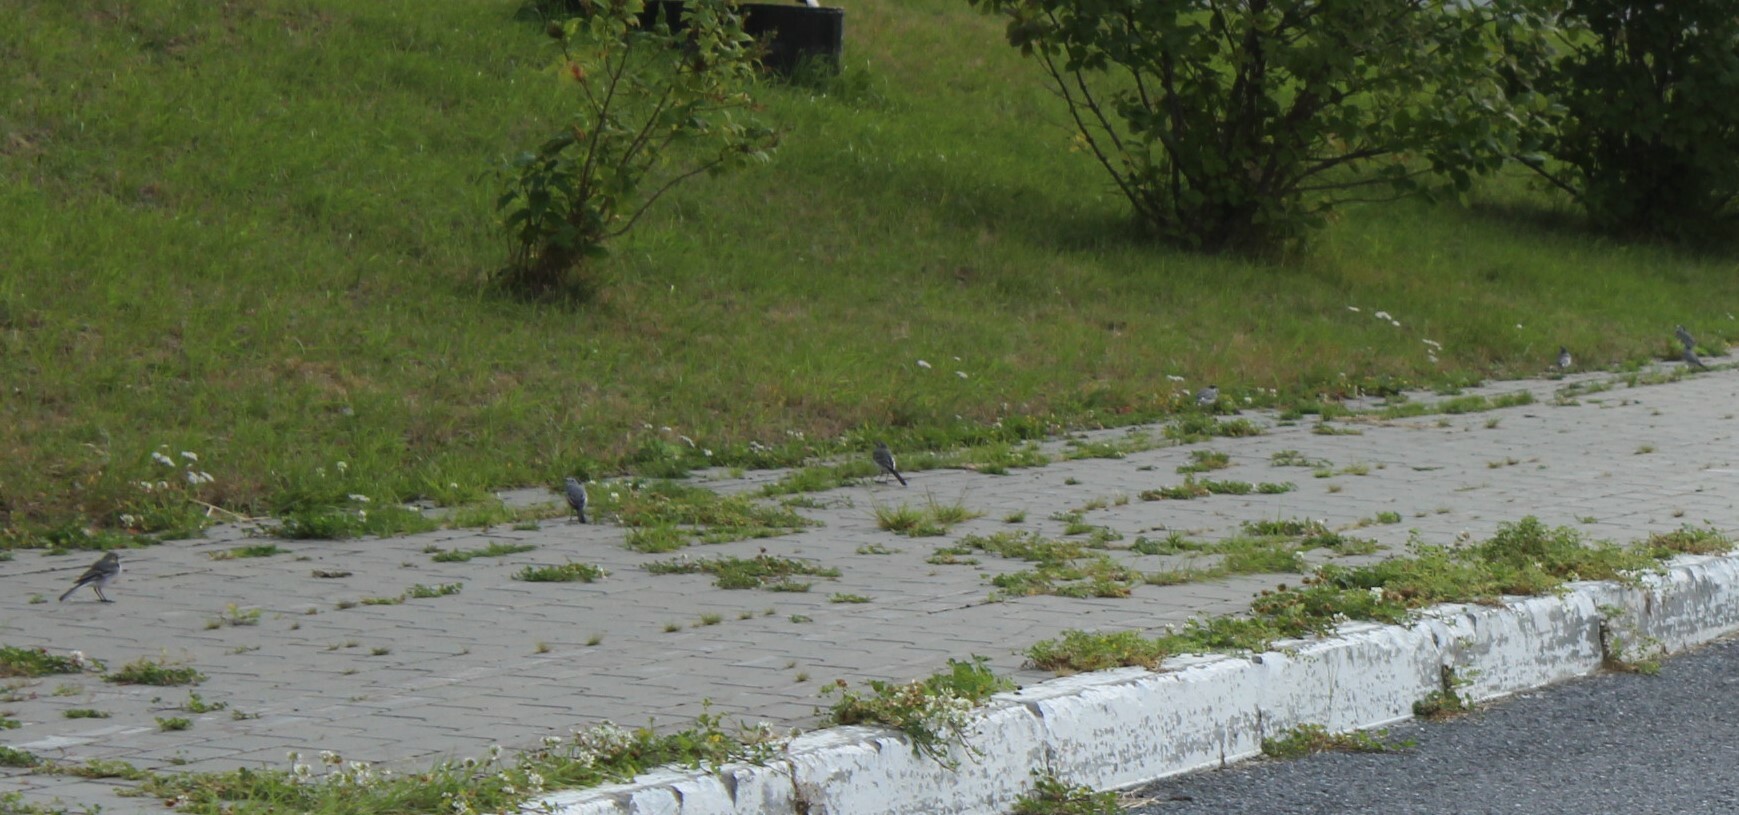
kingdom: Animalia
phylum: Chordata
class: Aves
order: Passeriformes
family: Motacillidae
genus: Motacilla
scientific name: Motacilla alba
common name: White wagtail
